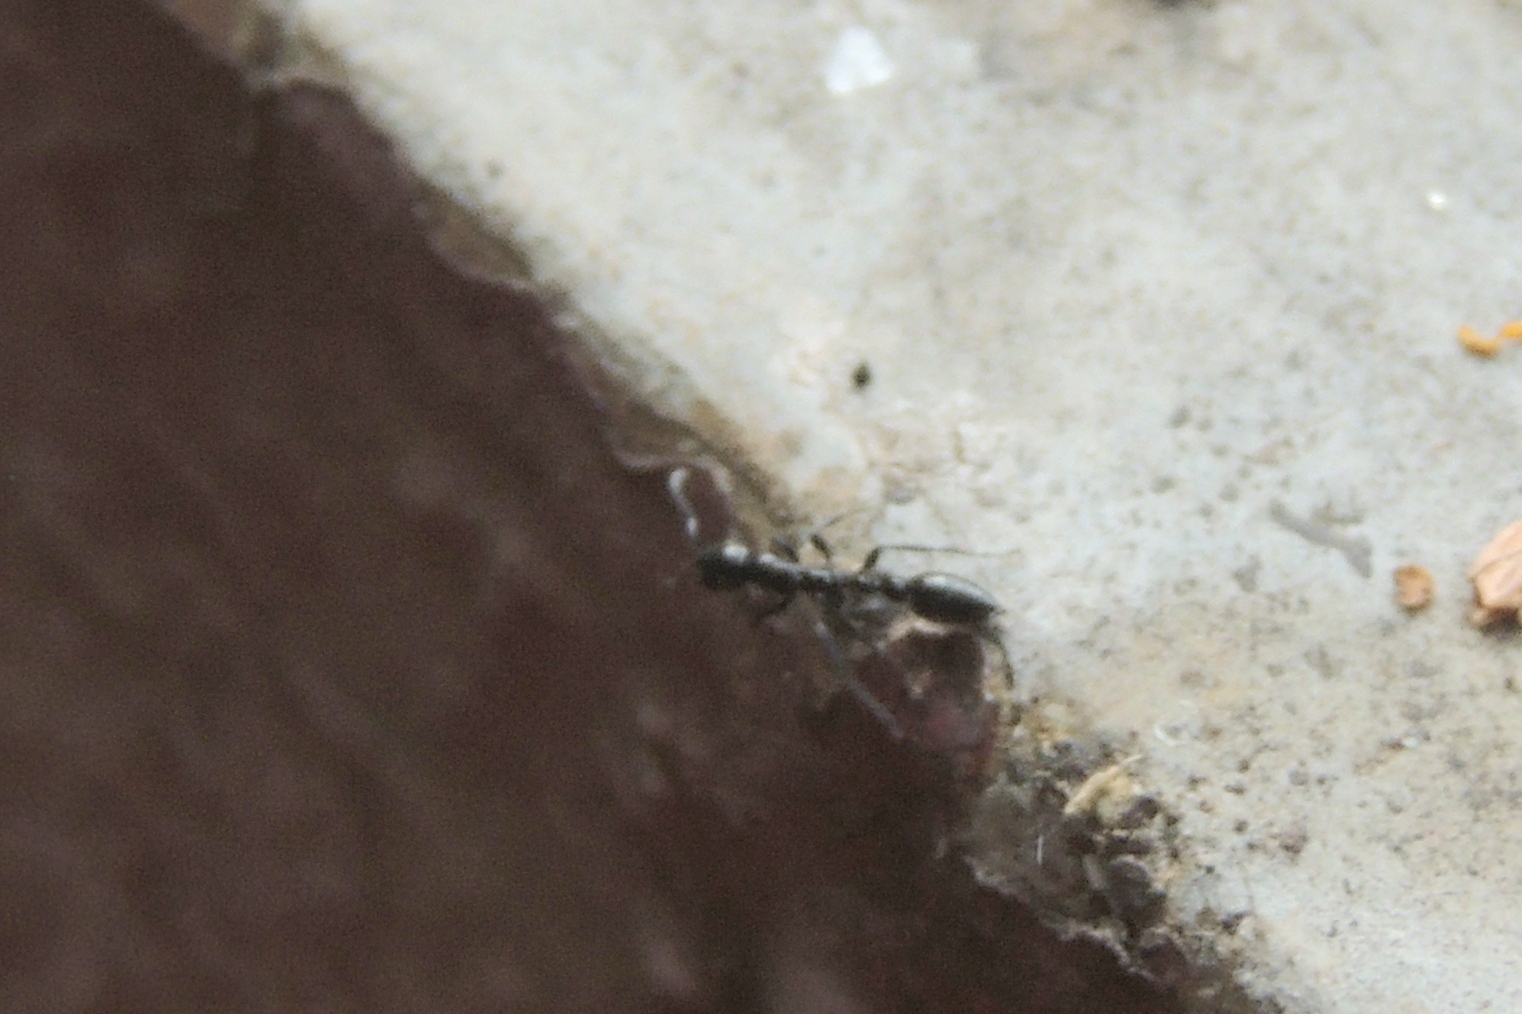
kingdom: Animalia
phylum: Arthropoda
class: Insecta
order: Hymenoptera
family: Formicidae
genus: Tetraponera
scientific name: Tetraponera
